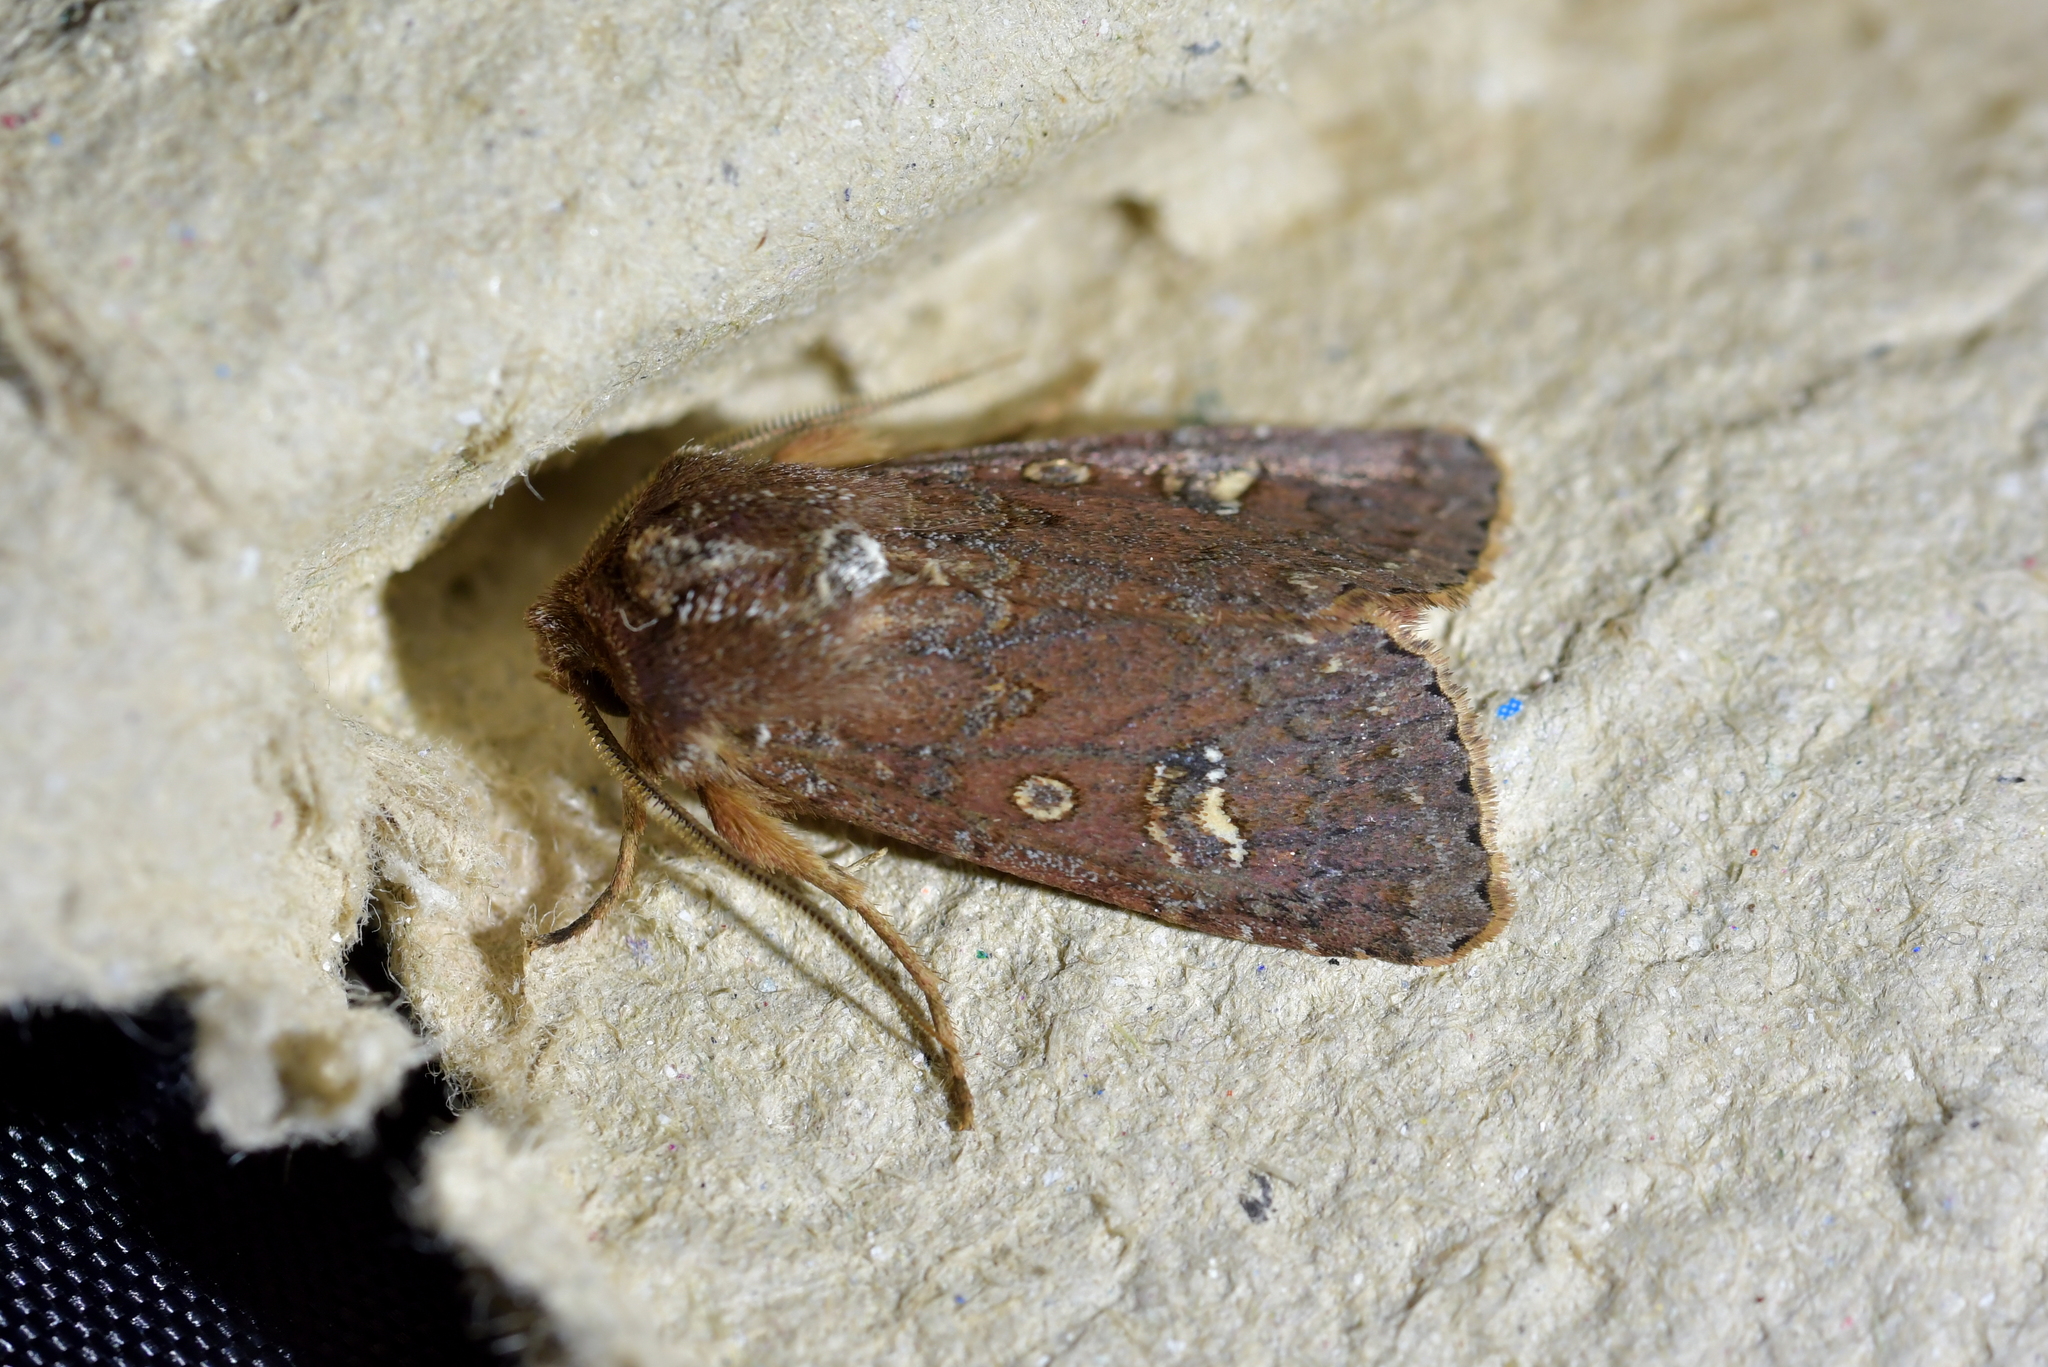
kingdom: Animalia
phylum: Arthropoda
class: Insecta
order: Lepidoptera
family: Noctuidae
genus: Ichneutica
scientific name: Ichneutica agorastis
